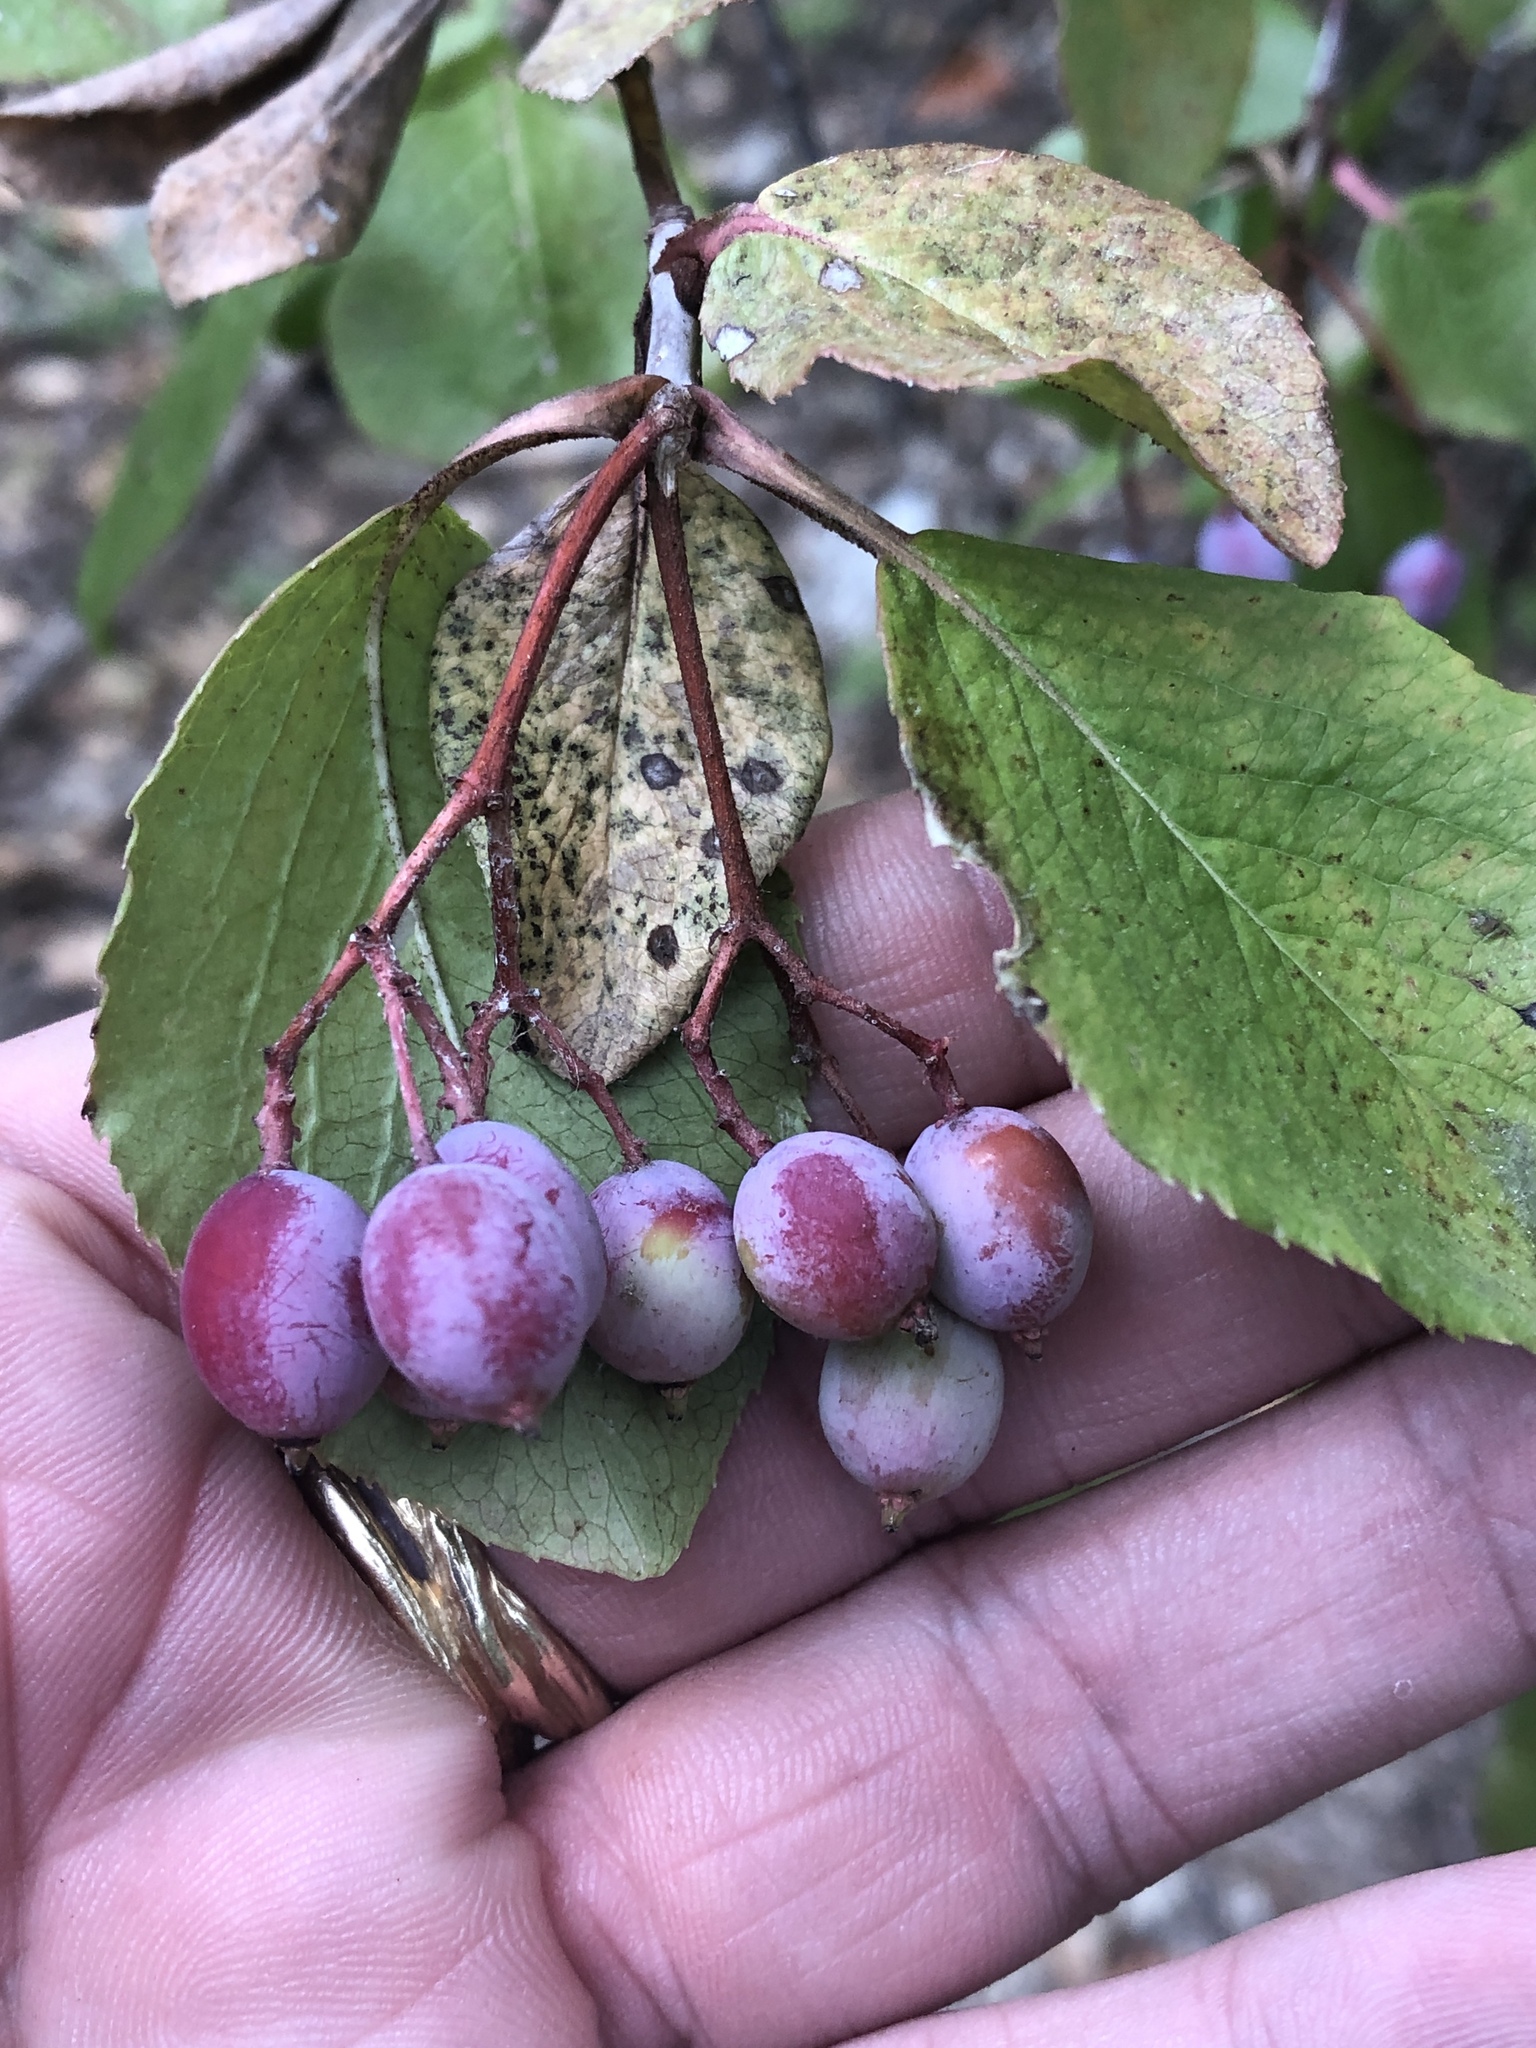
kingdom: Plantae
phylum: Tracheophyta
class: Magnoliopsida
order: Dipsacales
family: Viburnaceae
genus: Viburnum
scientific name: Viburnum rufidulum
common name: Blue haw
